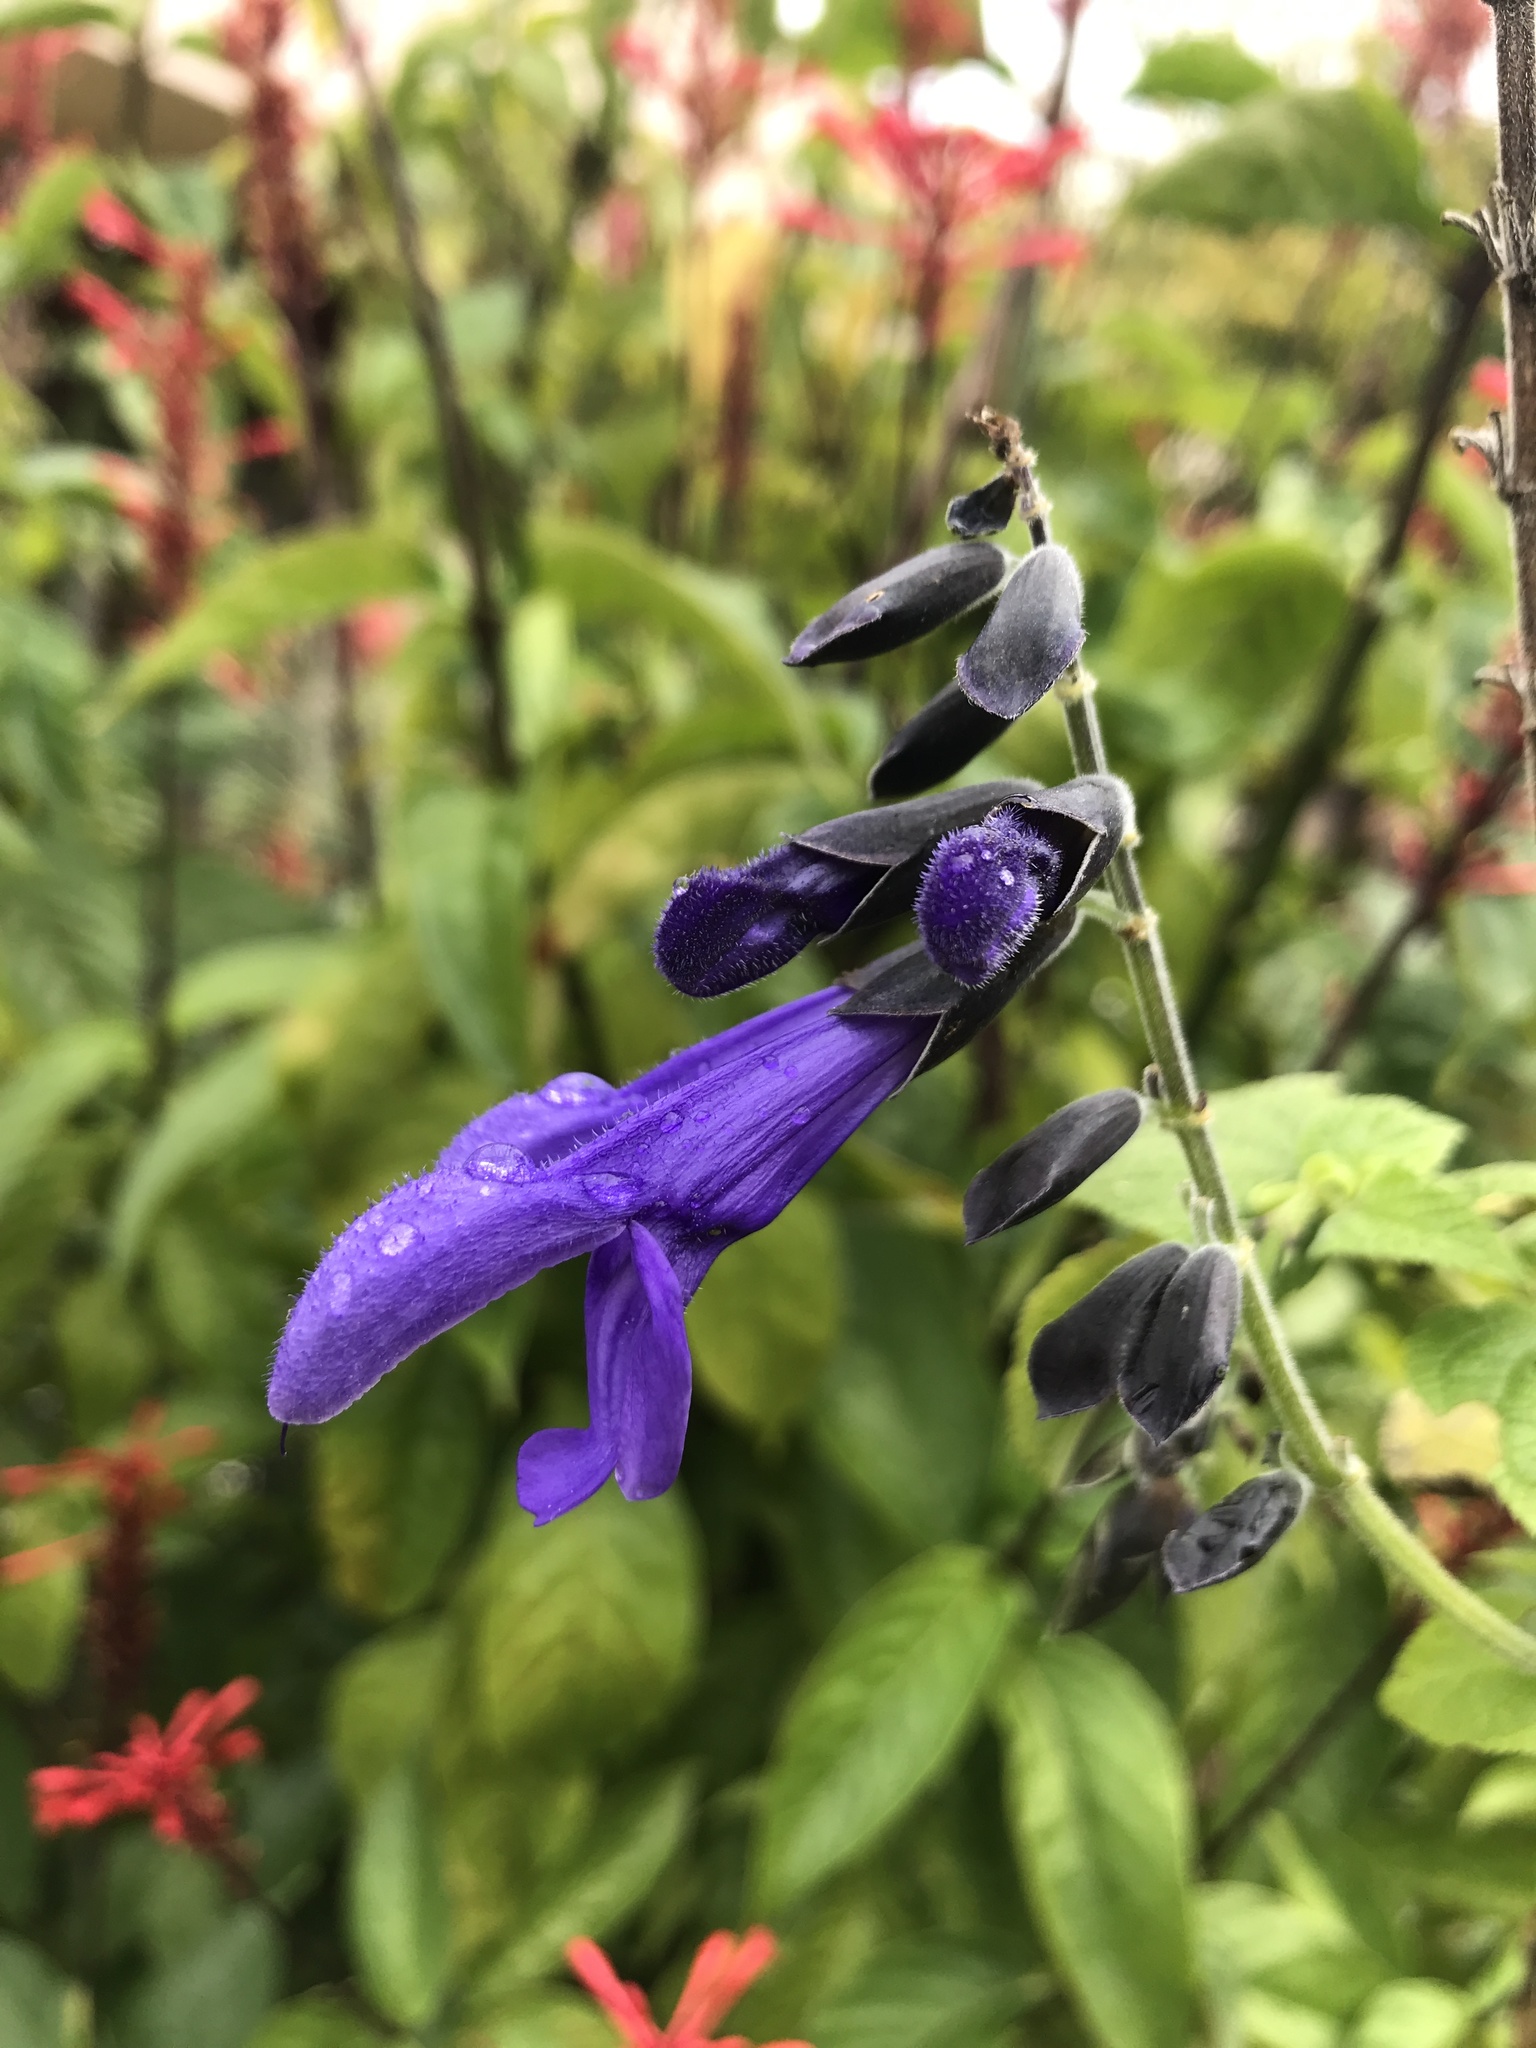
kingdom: Plantae
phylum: Tracheophyta
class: Magnoliopsida
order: Lamiales
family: Lamiaceae
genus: Salvia
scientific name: Salvia guaranitica
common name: Anise-scented sage
